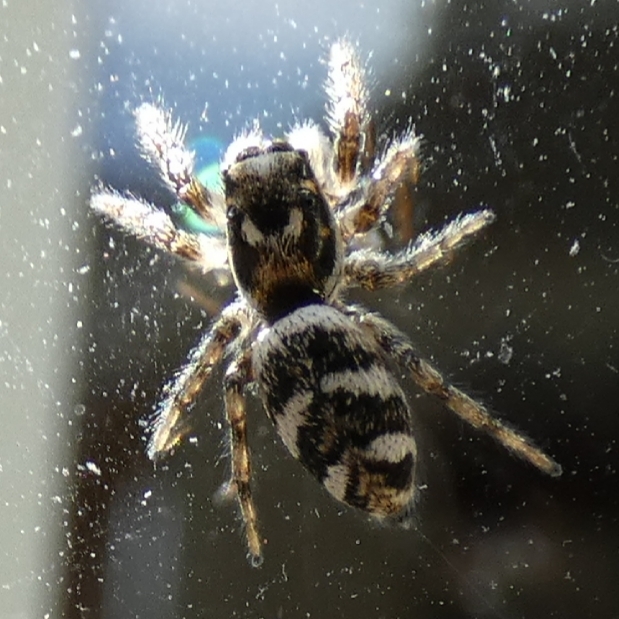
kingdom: Animalia
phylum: Arthropoda
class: Arachnida
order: Araneae
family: Salticidae
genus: Salticus
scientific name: Salticus scenicus
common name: Zebra jumper
